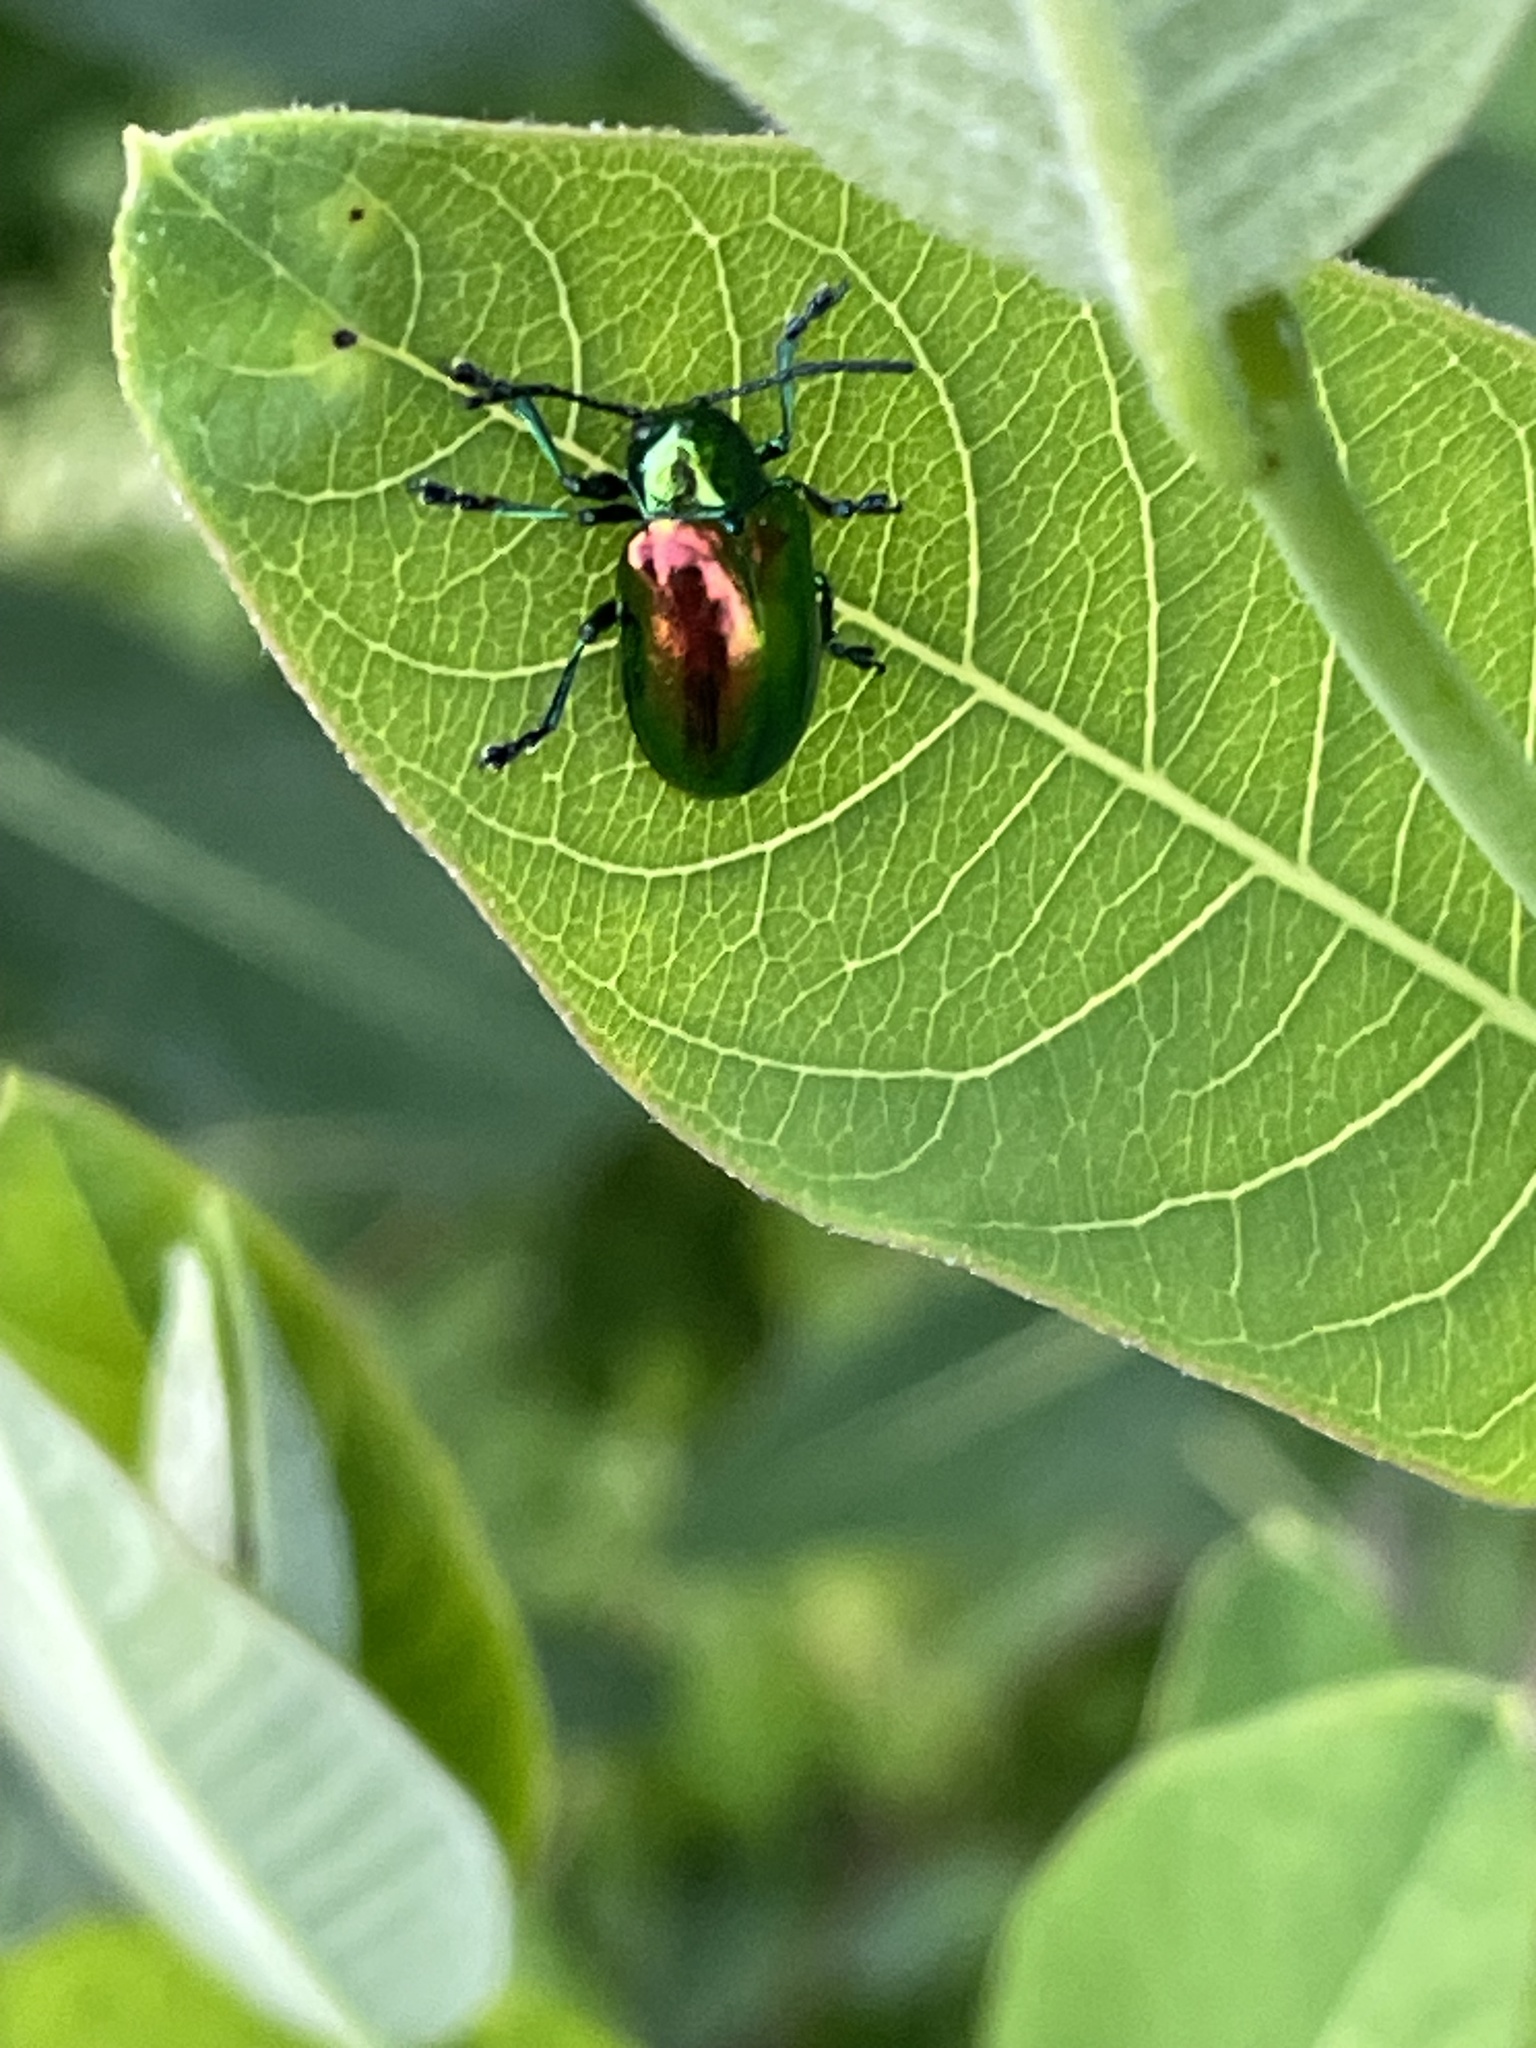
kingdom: Animalia
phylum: Arthropoda
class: Insecta
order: Coleoptera
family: Chrysomelidae
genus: Chrysochus
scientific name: Chrysochus auratus
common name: Dogbane leaf beetle
